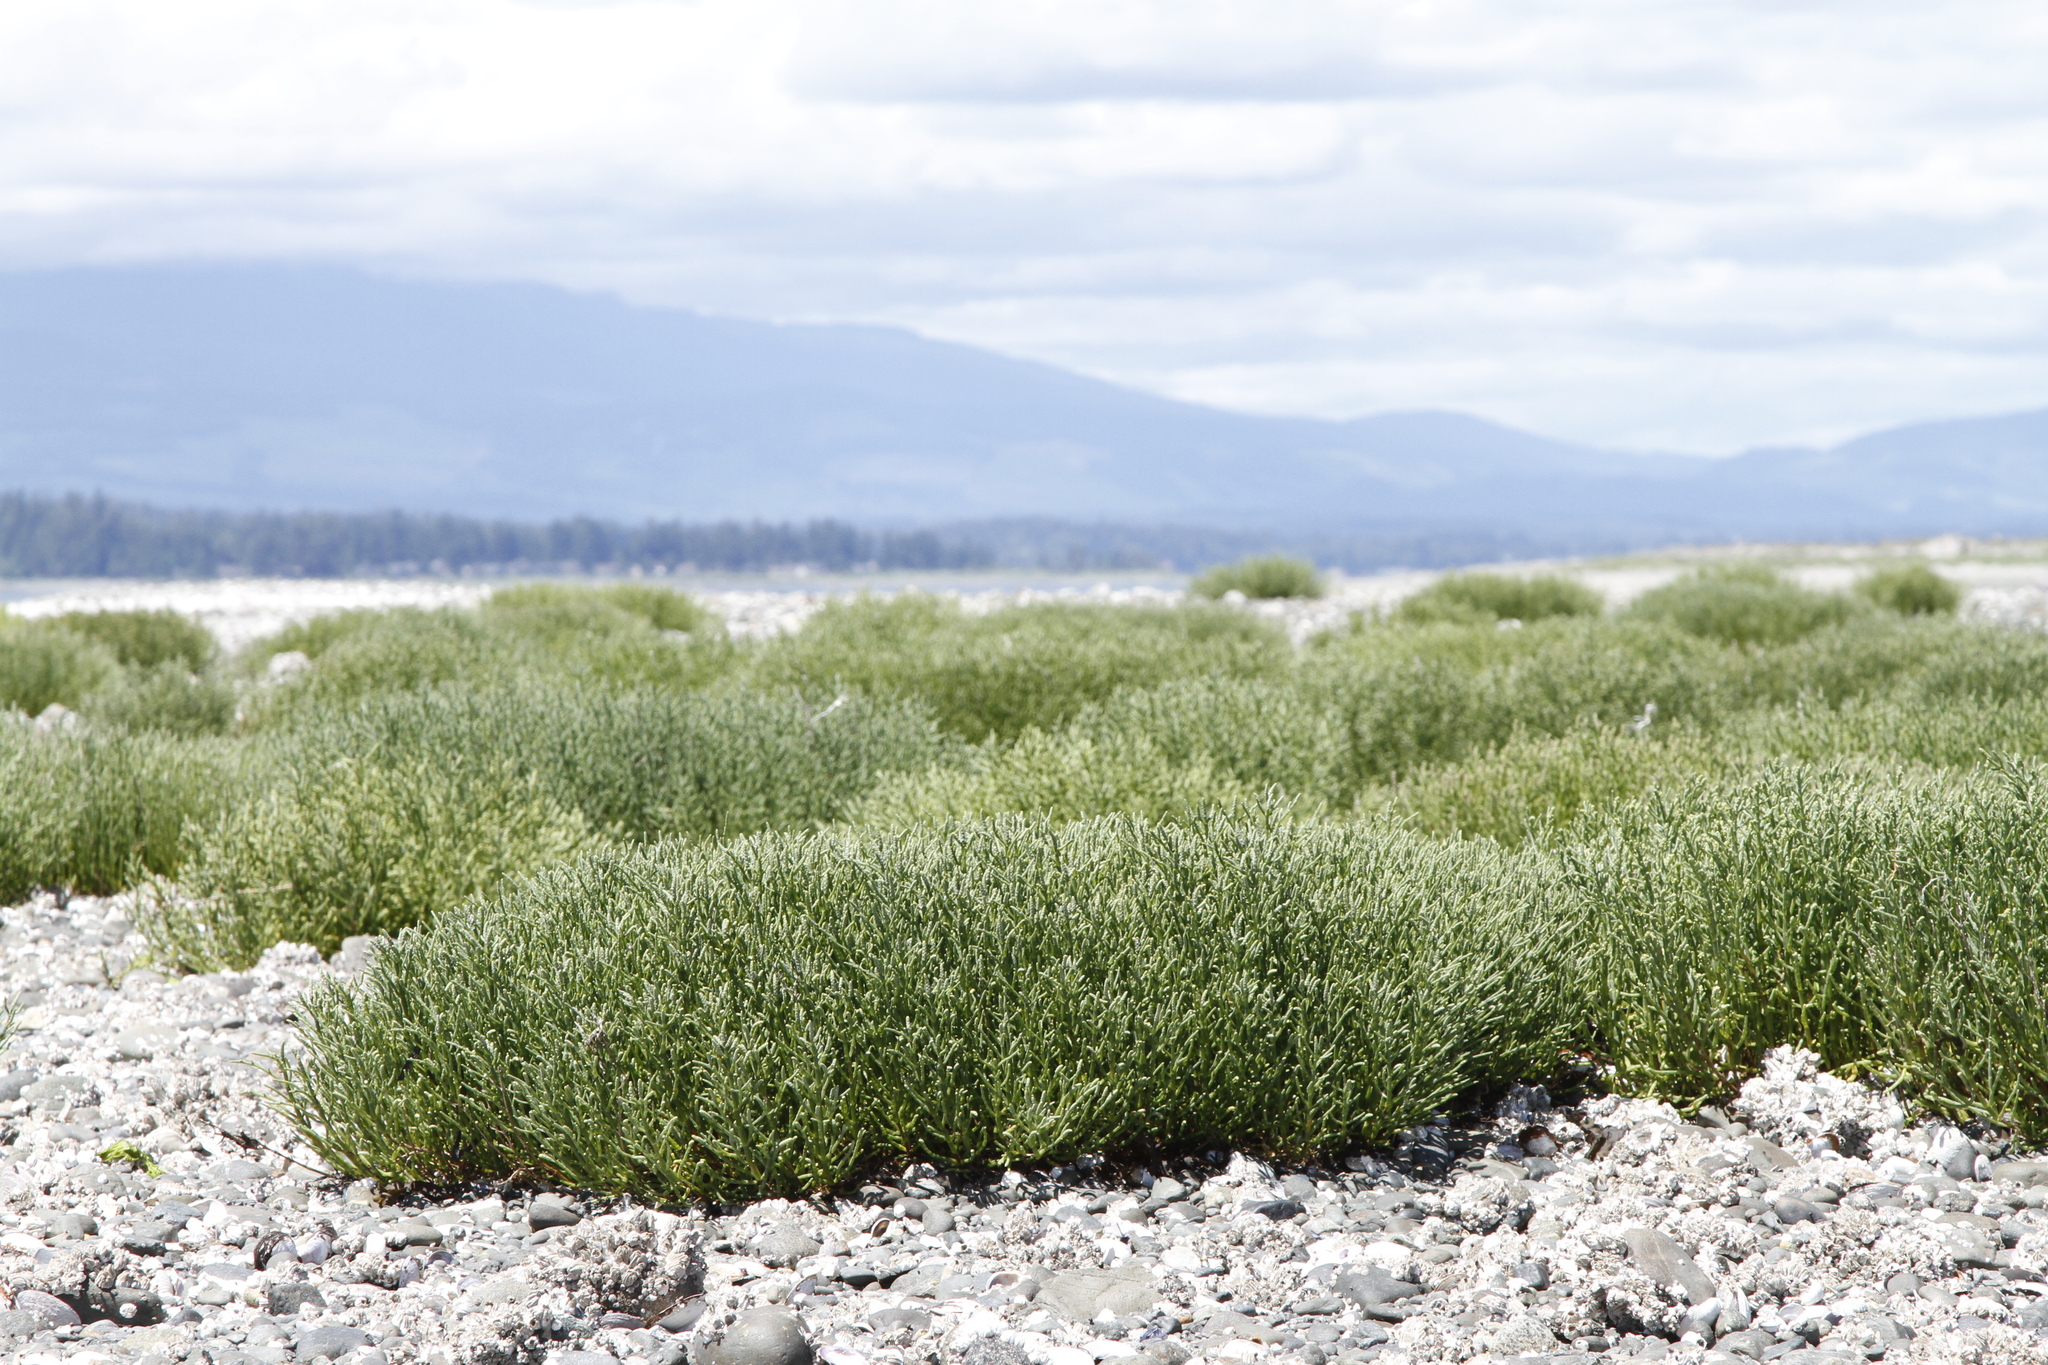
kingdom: Plantae
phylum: Tracheophyta
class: Magnoliopsida
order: Caryophyllales
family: Amaranthaceae
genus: Salicornia
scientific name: Salicornia pacifica
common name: Pacific glasswort
